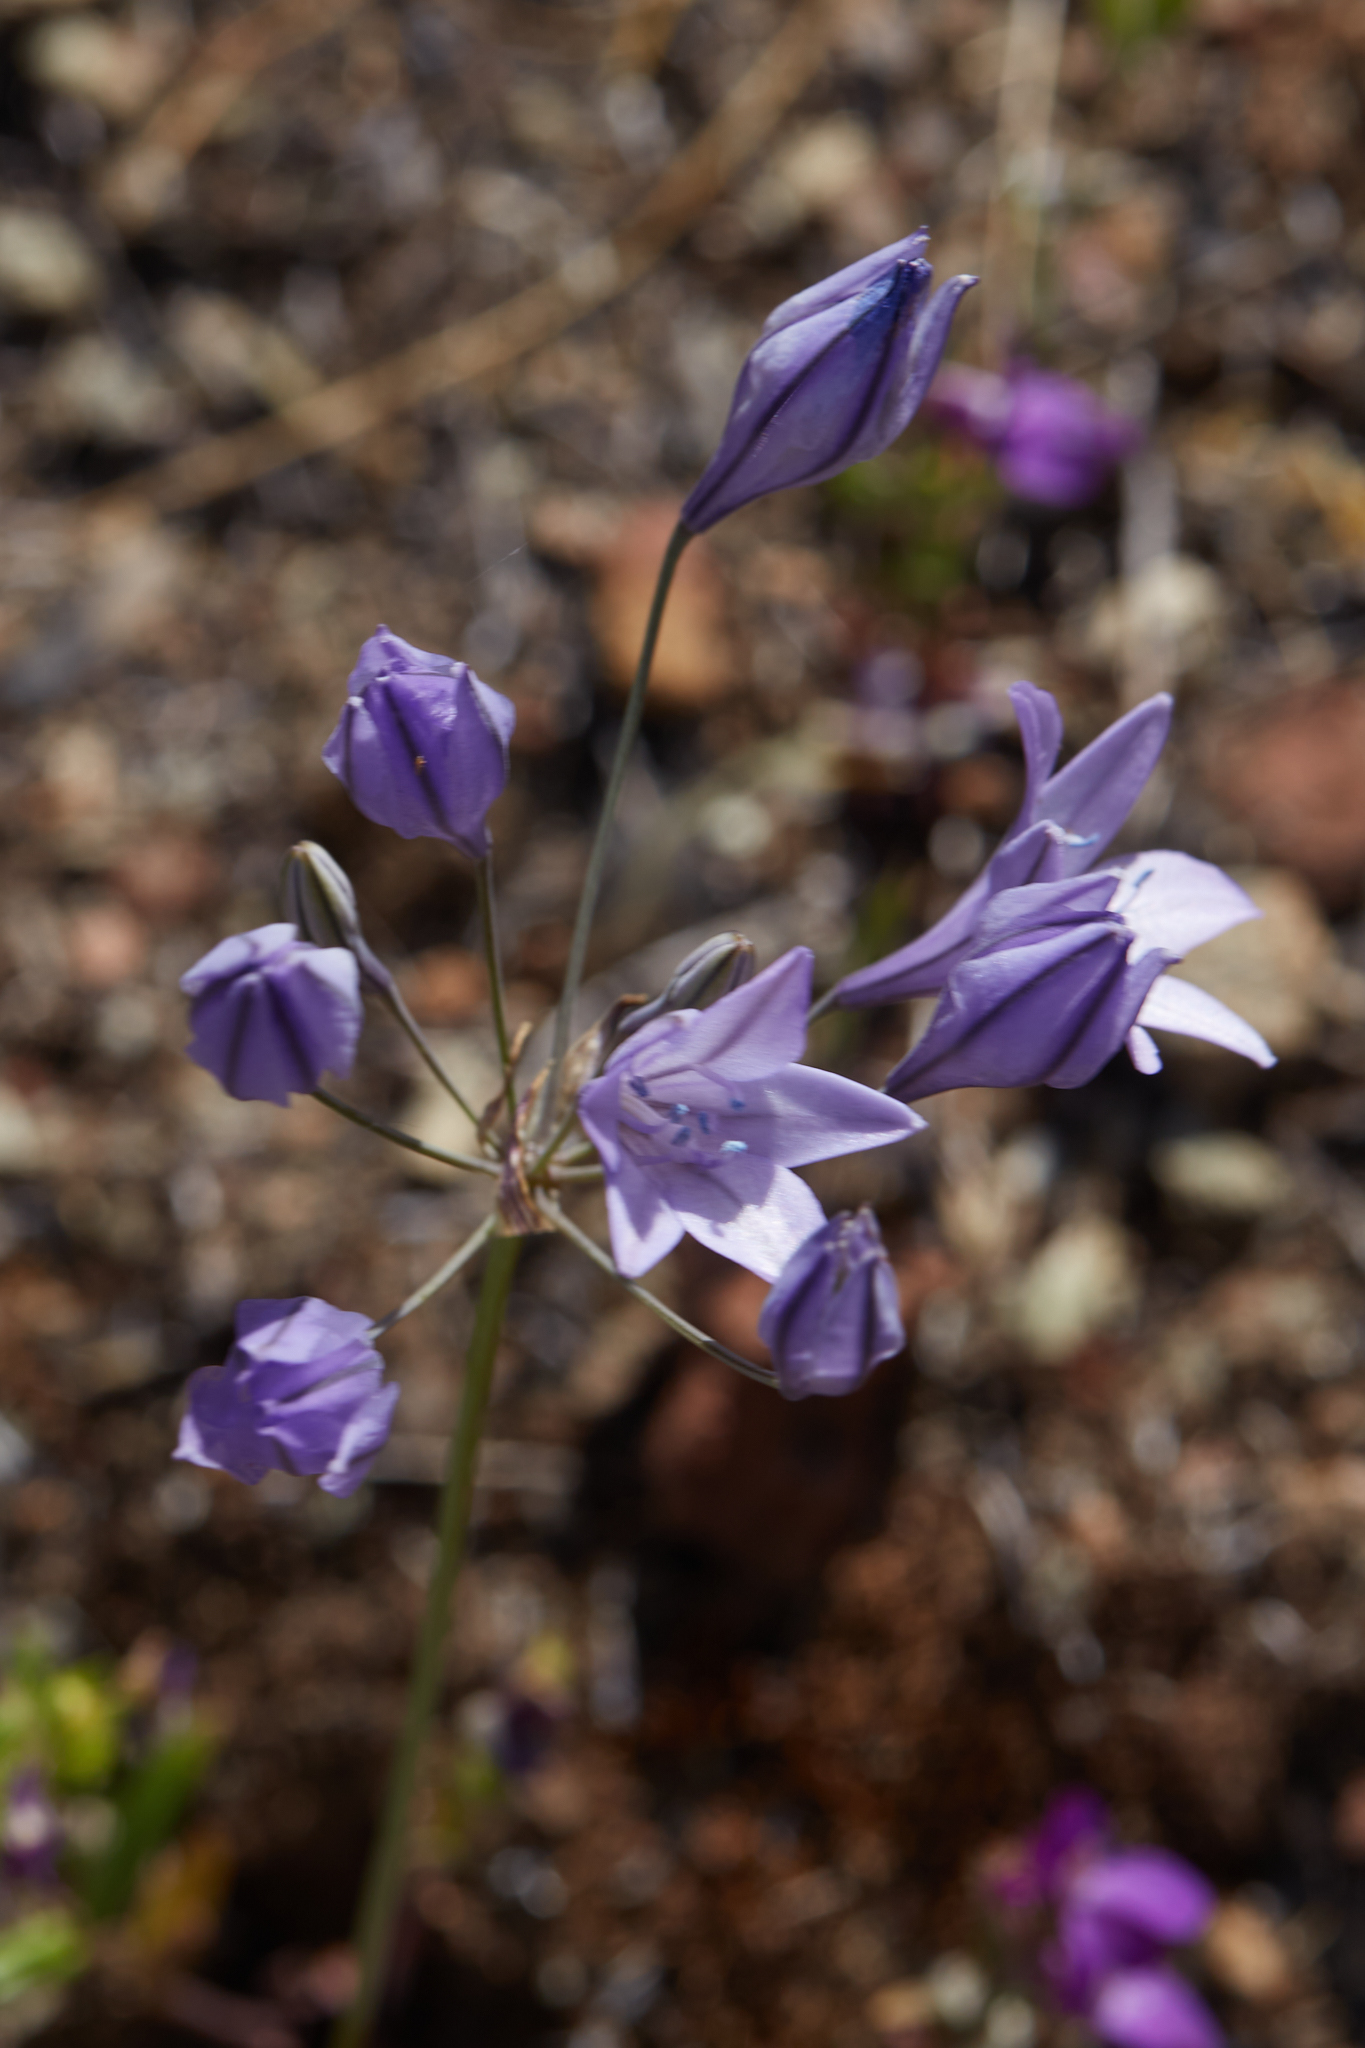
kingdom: Plantae
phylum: Tracheophyta
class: Liliopsida
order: Asparagales
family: Asparagaceae
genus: Triteleia
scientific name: Triteleia laxa
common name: Triplet-lily
